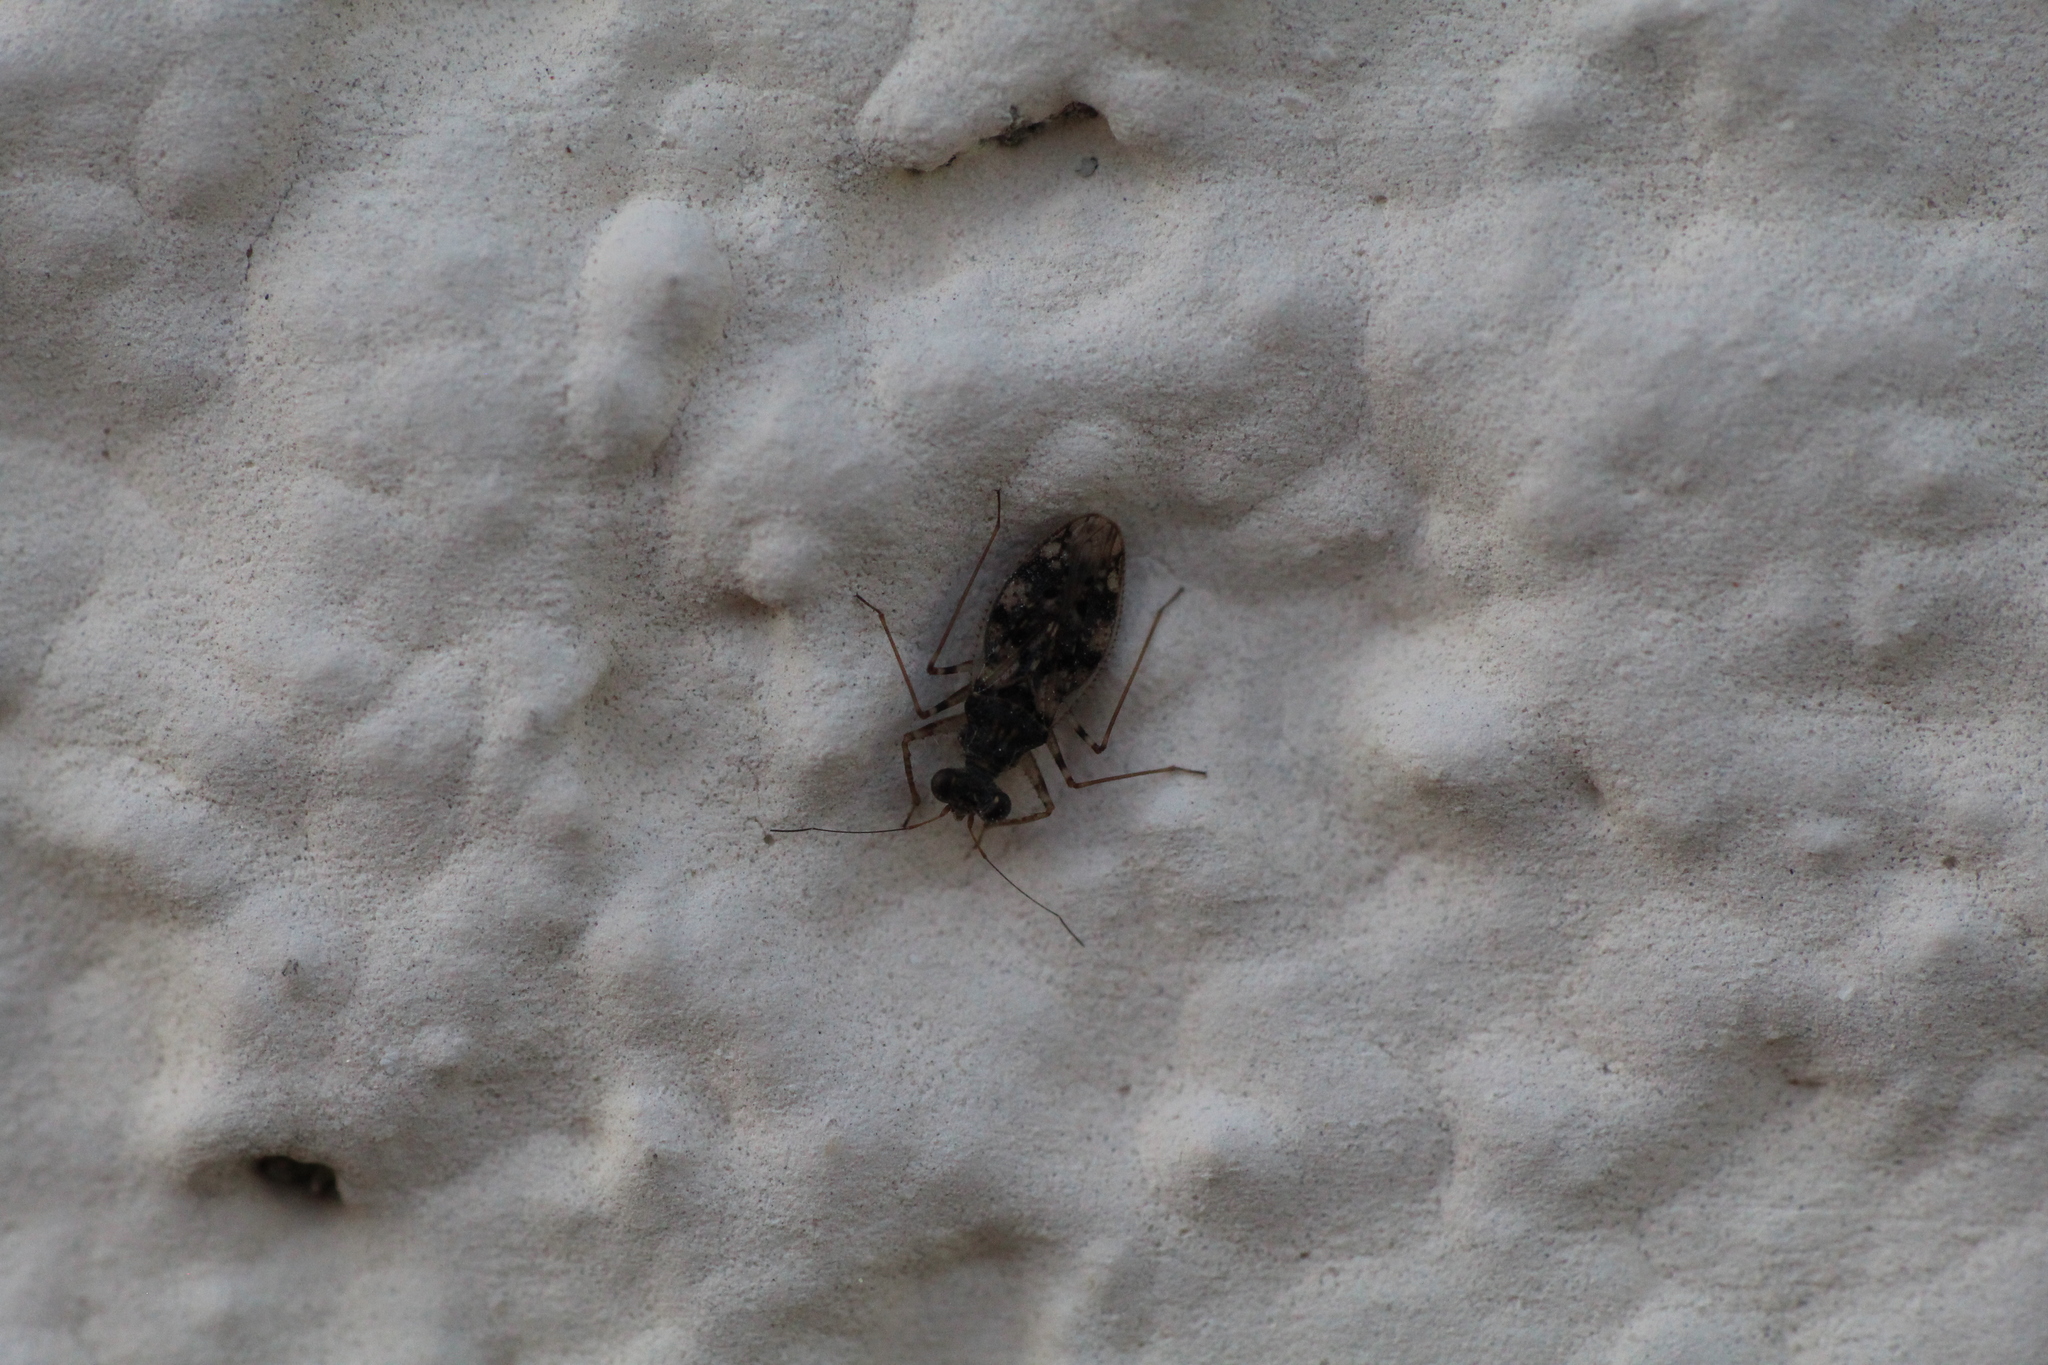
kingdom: Animalia
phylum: Arthropoda
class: Insecta
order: Hemiptera
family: Leptopodidae
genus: Leptopus
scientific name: Leptopus marmoratus
